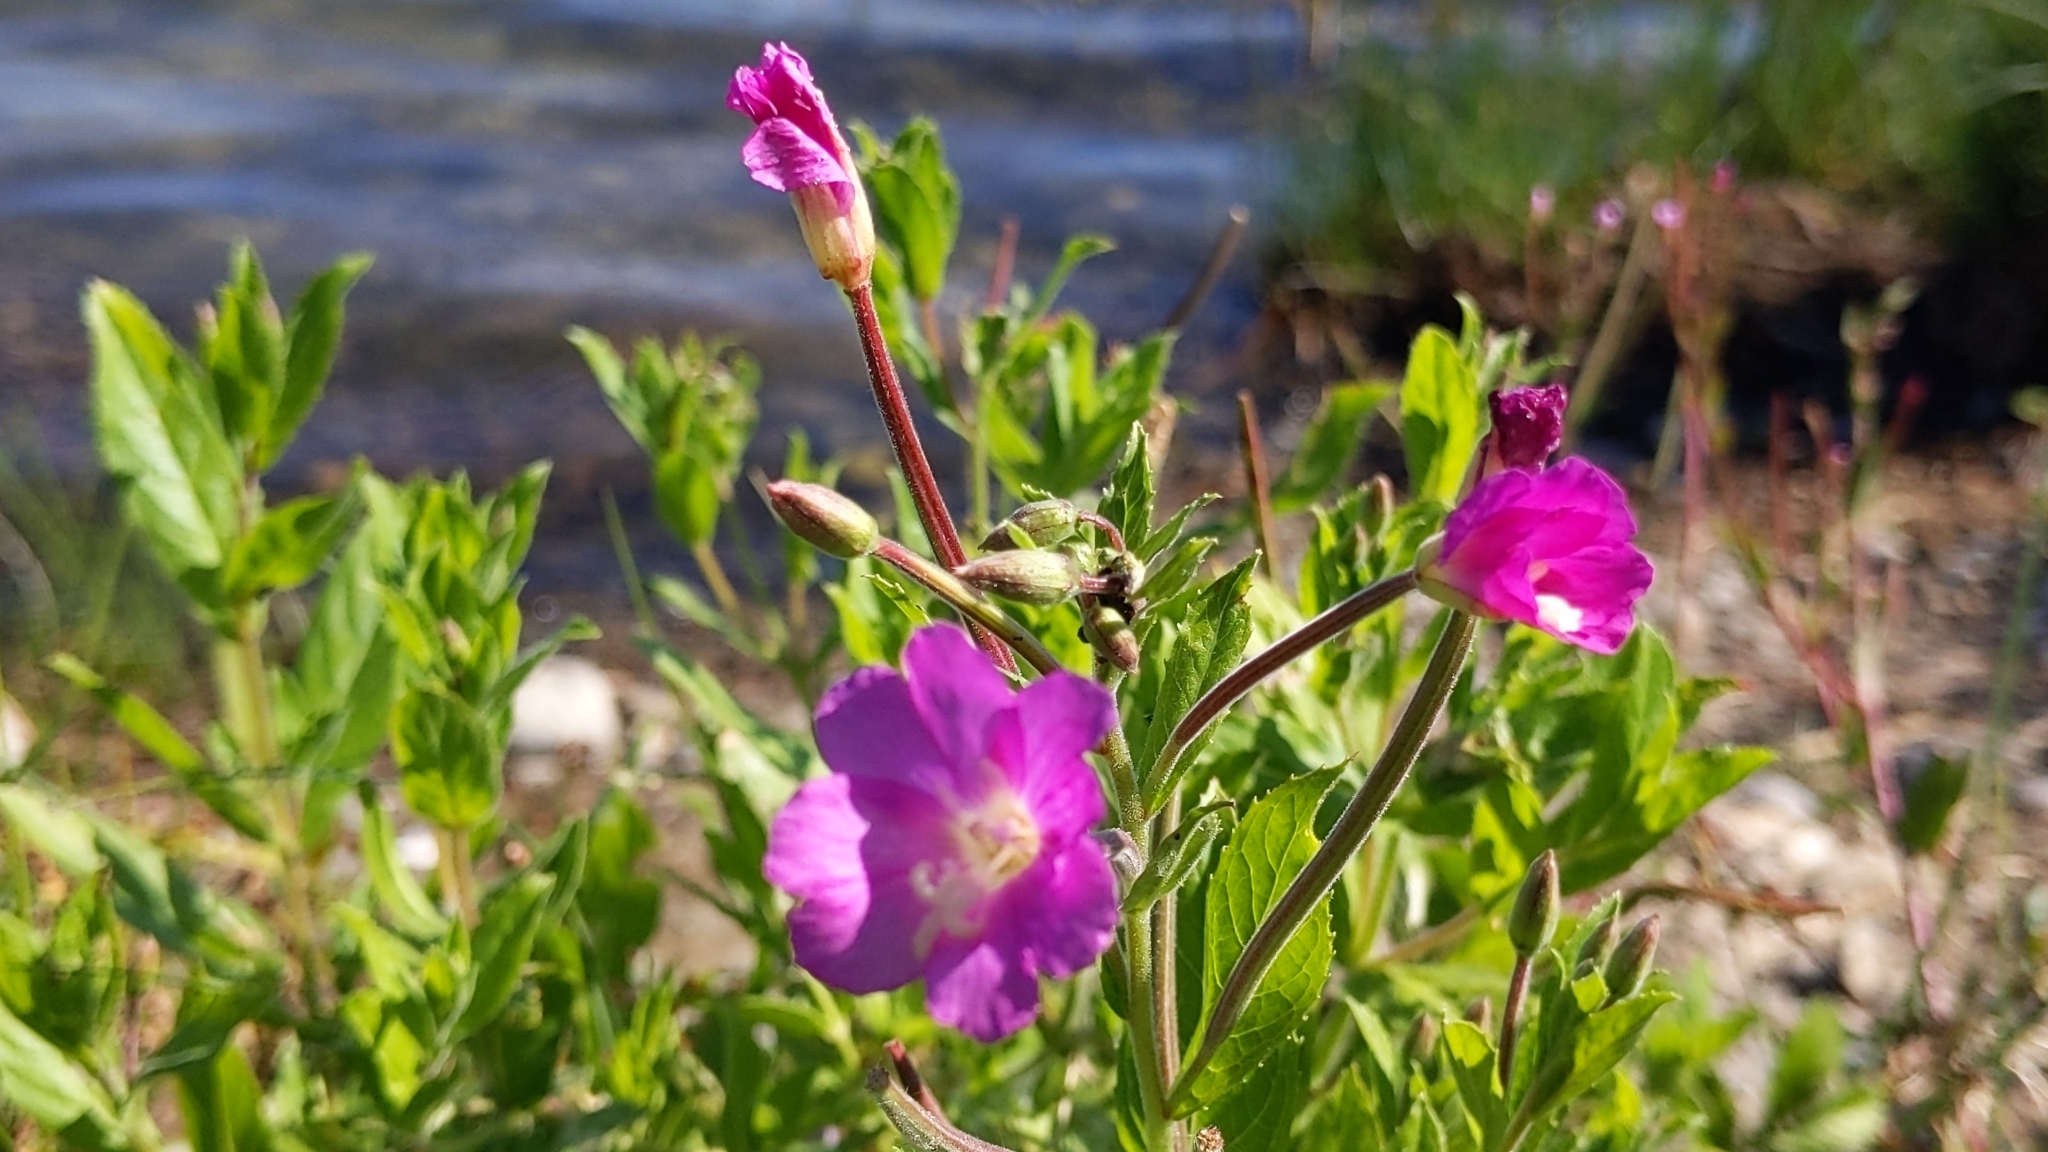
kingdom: Plantae
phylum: Tracheophyta
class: Magnoliopsida
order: Myrtales
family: Onagraceae
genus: Epilobium
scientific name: Epilobium hirsutum
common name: Great willowherb
